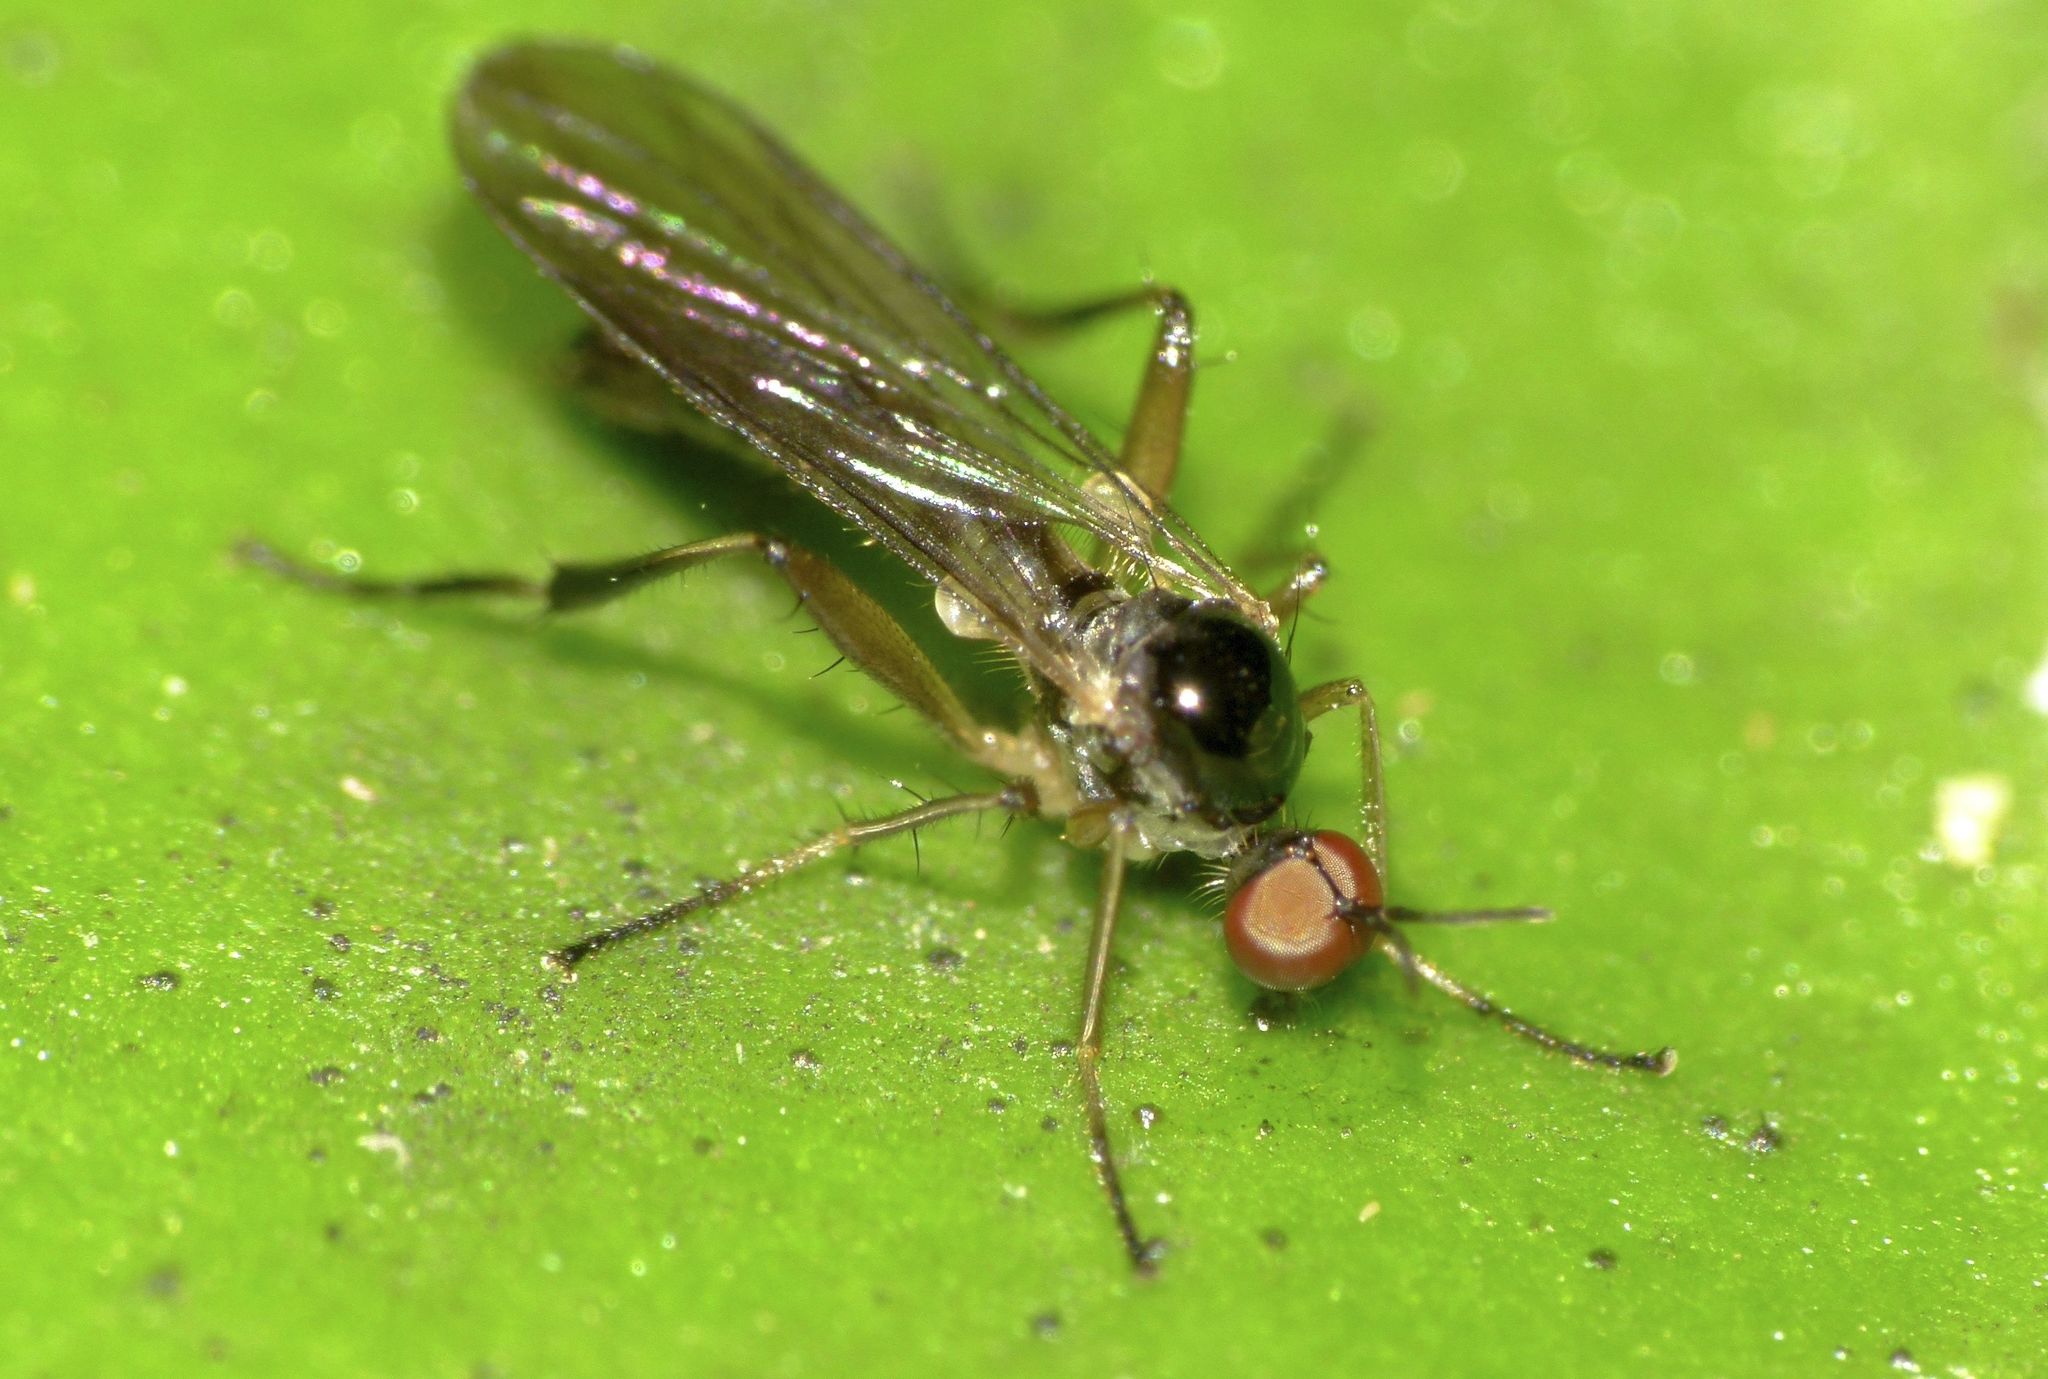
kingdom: Animalia
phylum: Arthropoda
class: Insecta
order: Diptera
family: Hybotidae
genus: Oropezella
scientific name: Oropezella tanycera
